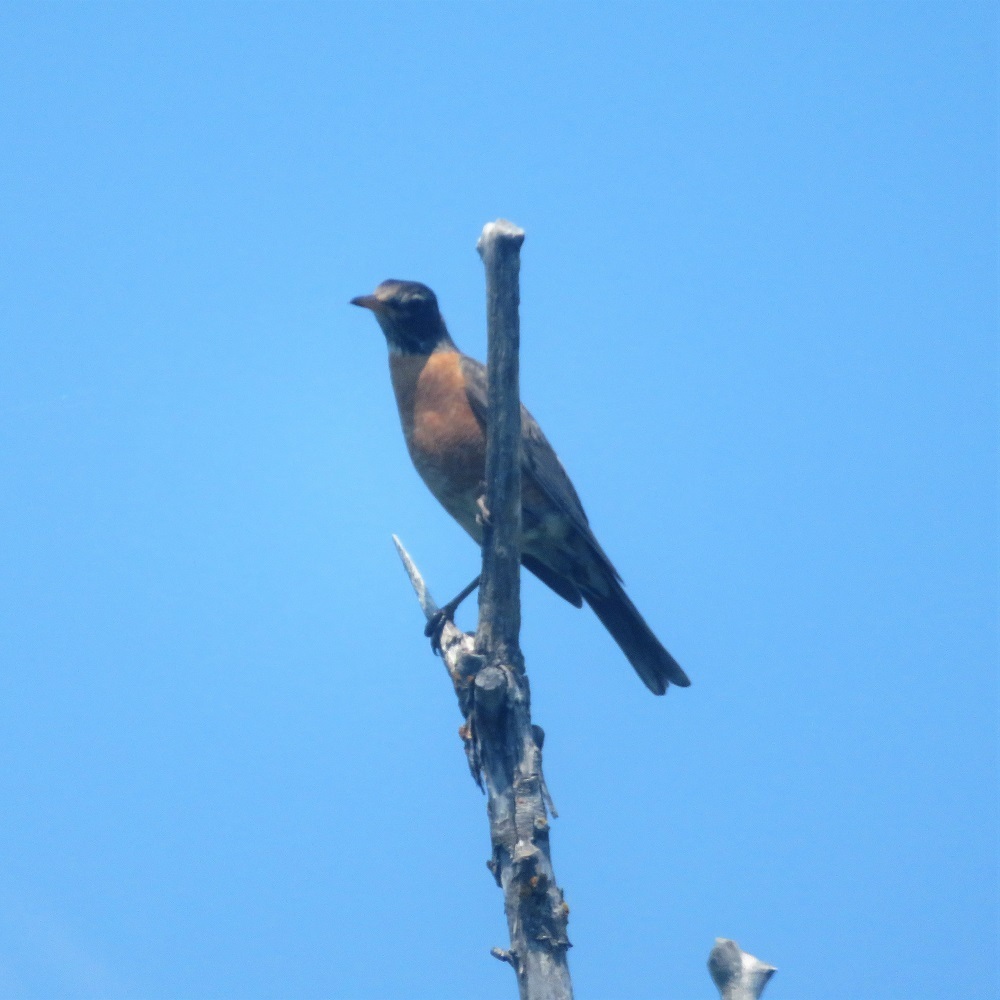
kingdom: Animalia
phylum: Chordata
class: Aves
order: Passeriformes
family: Turdidae
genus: Turdus
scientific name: Turdus migratorius
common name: American robin
